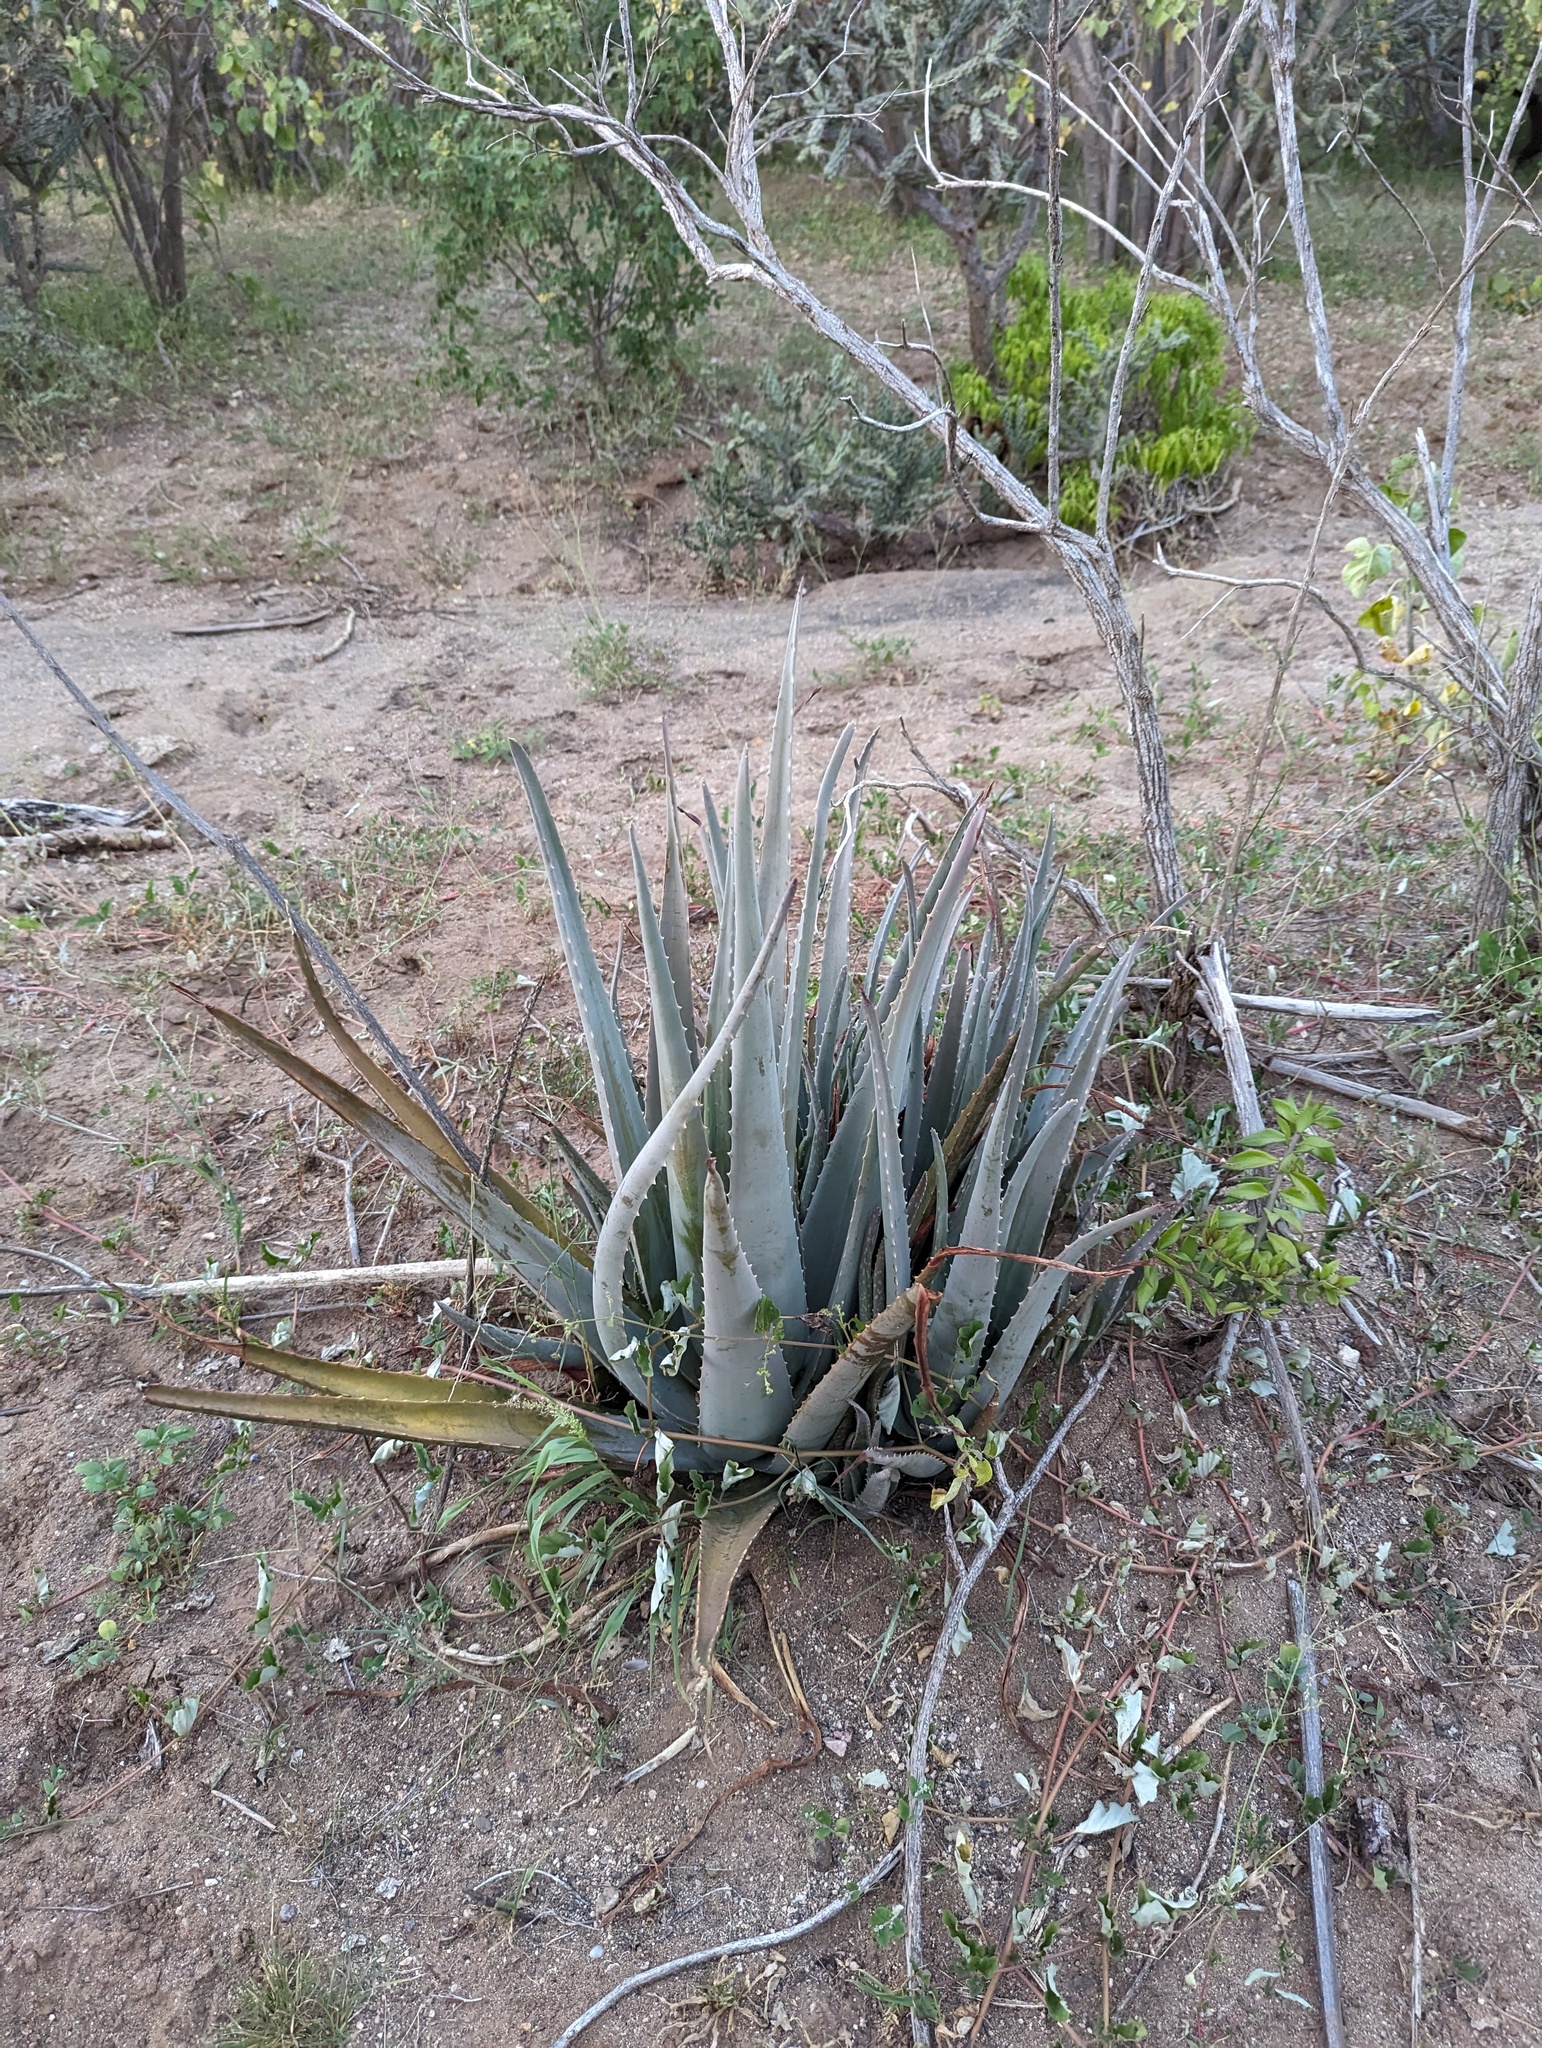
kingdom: Plantae
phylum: Tracheophyta
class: Liliopsida
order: Asparagales
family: Asphodelaceae
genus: Aloe
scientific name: Aloe vera
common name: Barbados aloe
